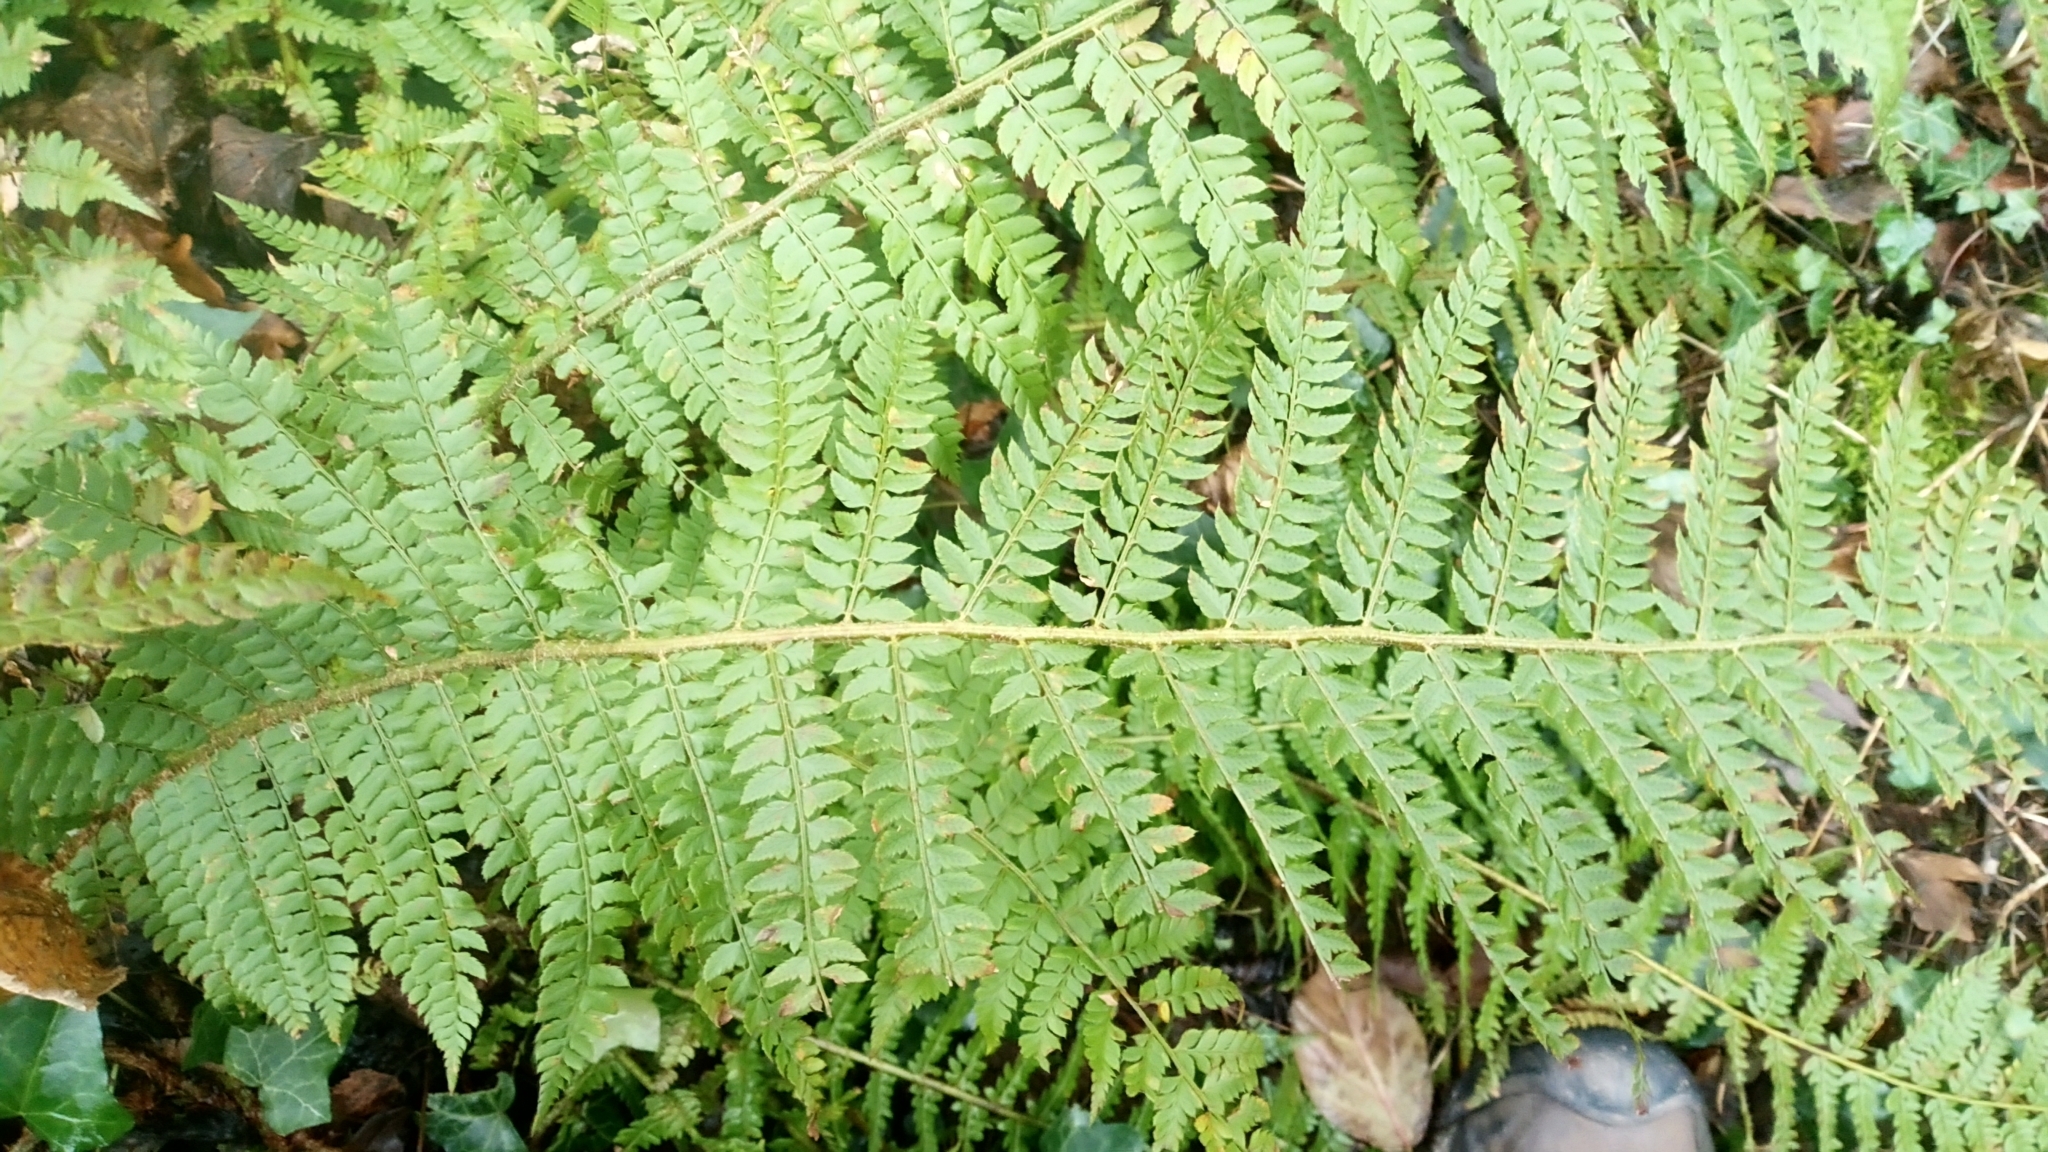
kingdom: Plantae
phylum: Tracheophyta
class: Polypodiopsida
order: Polypodiales
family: Dryopteridaceae
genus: Polystichum
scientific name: Polystichum setiferum
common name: Soft shield-fern
